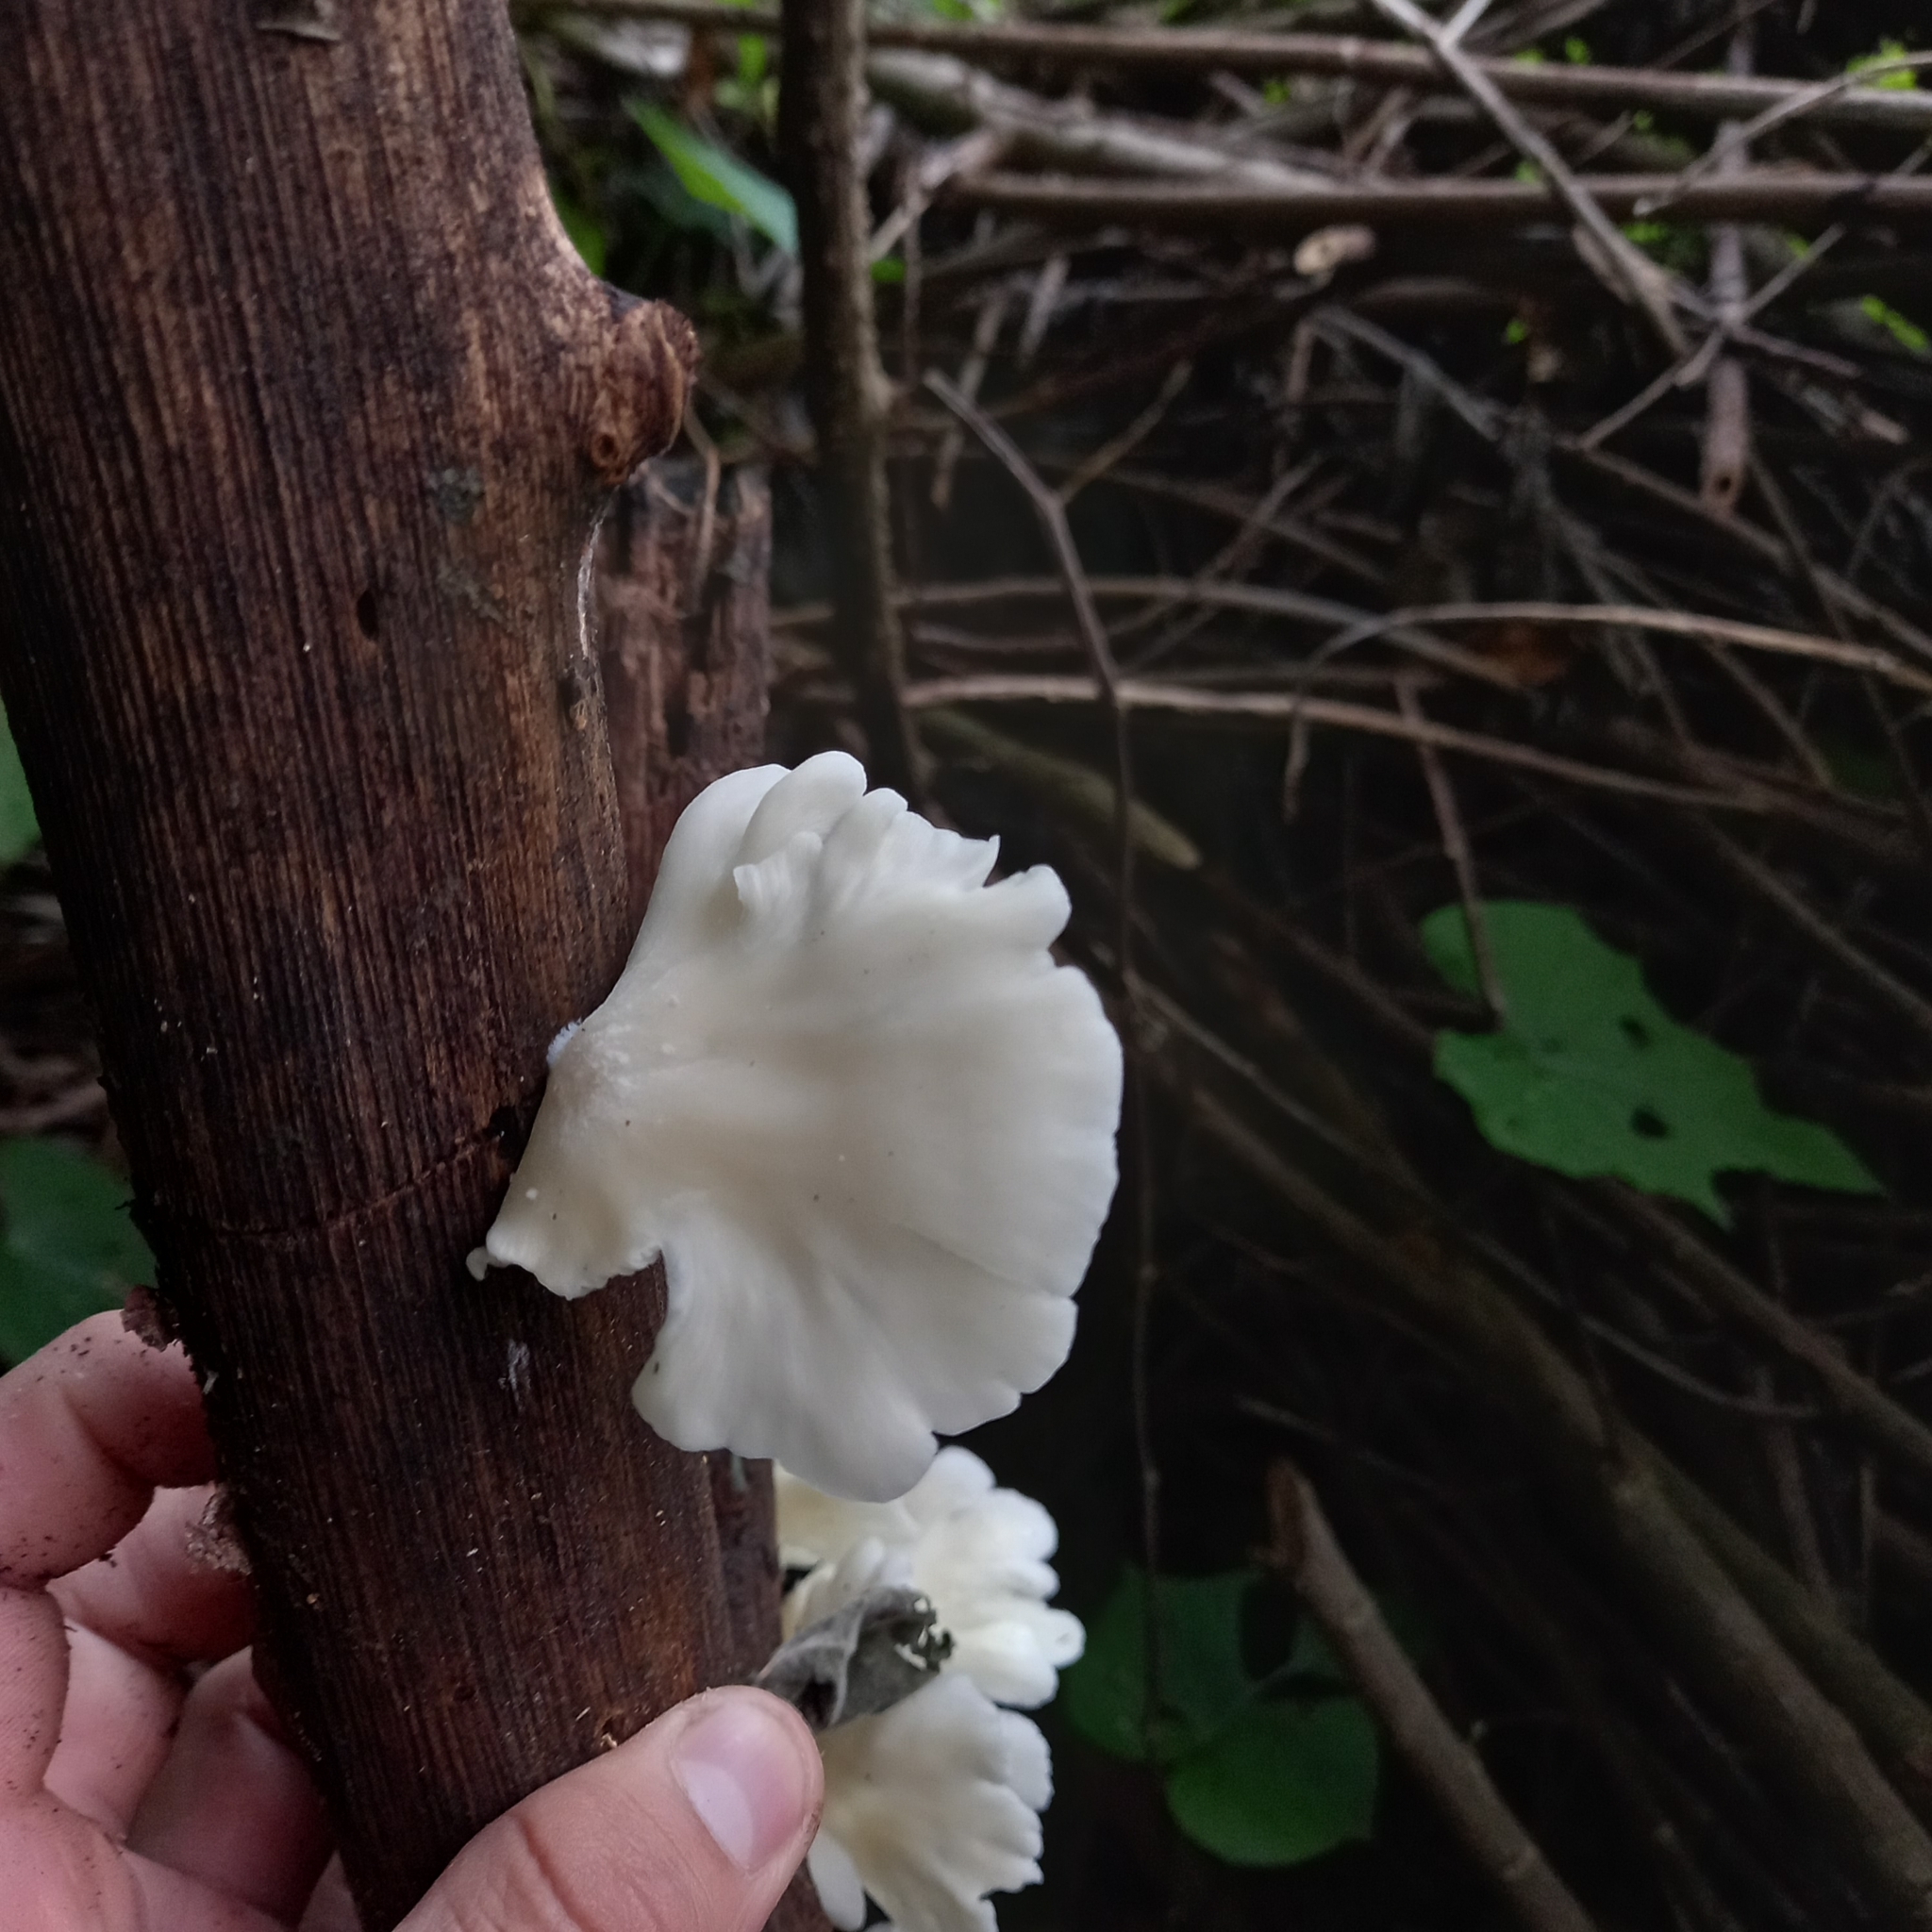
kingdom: Fungi
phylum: Basidiomycota
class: Agaricomycetes
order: Agaricales
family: Pleurotaceae
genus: Pleurotus
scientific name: Pleurotus pulmonarius
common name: Pale oyster
